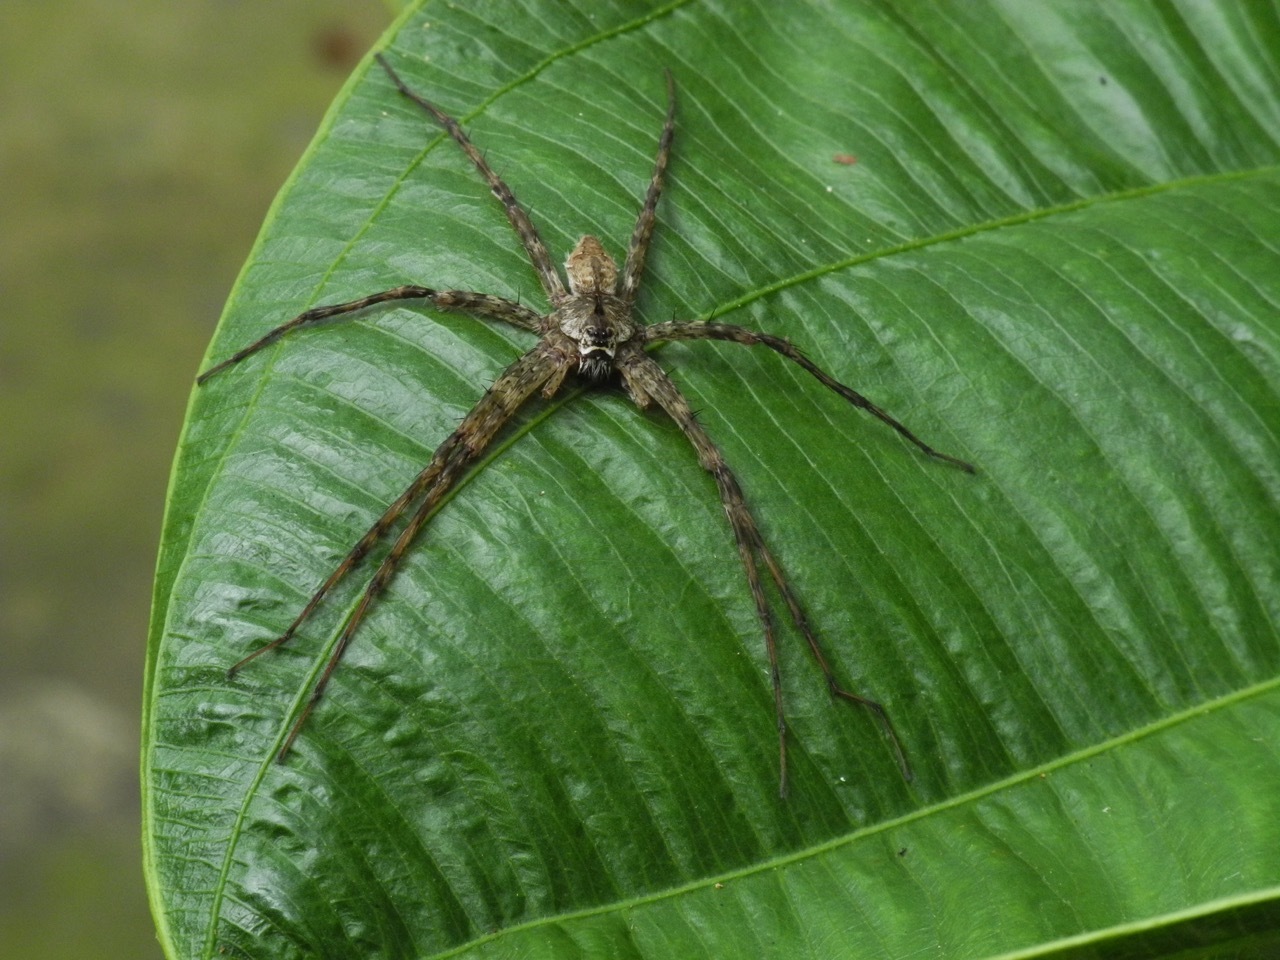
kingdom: Animalia
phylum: Arthropoda
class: Arachnida
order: Araneae
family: Pisauridae
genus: Dolomedes
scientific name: Dolomedes albineus
